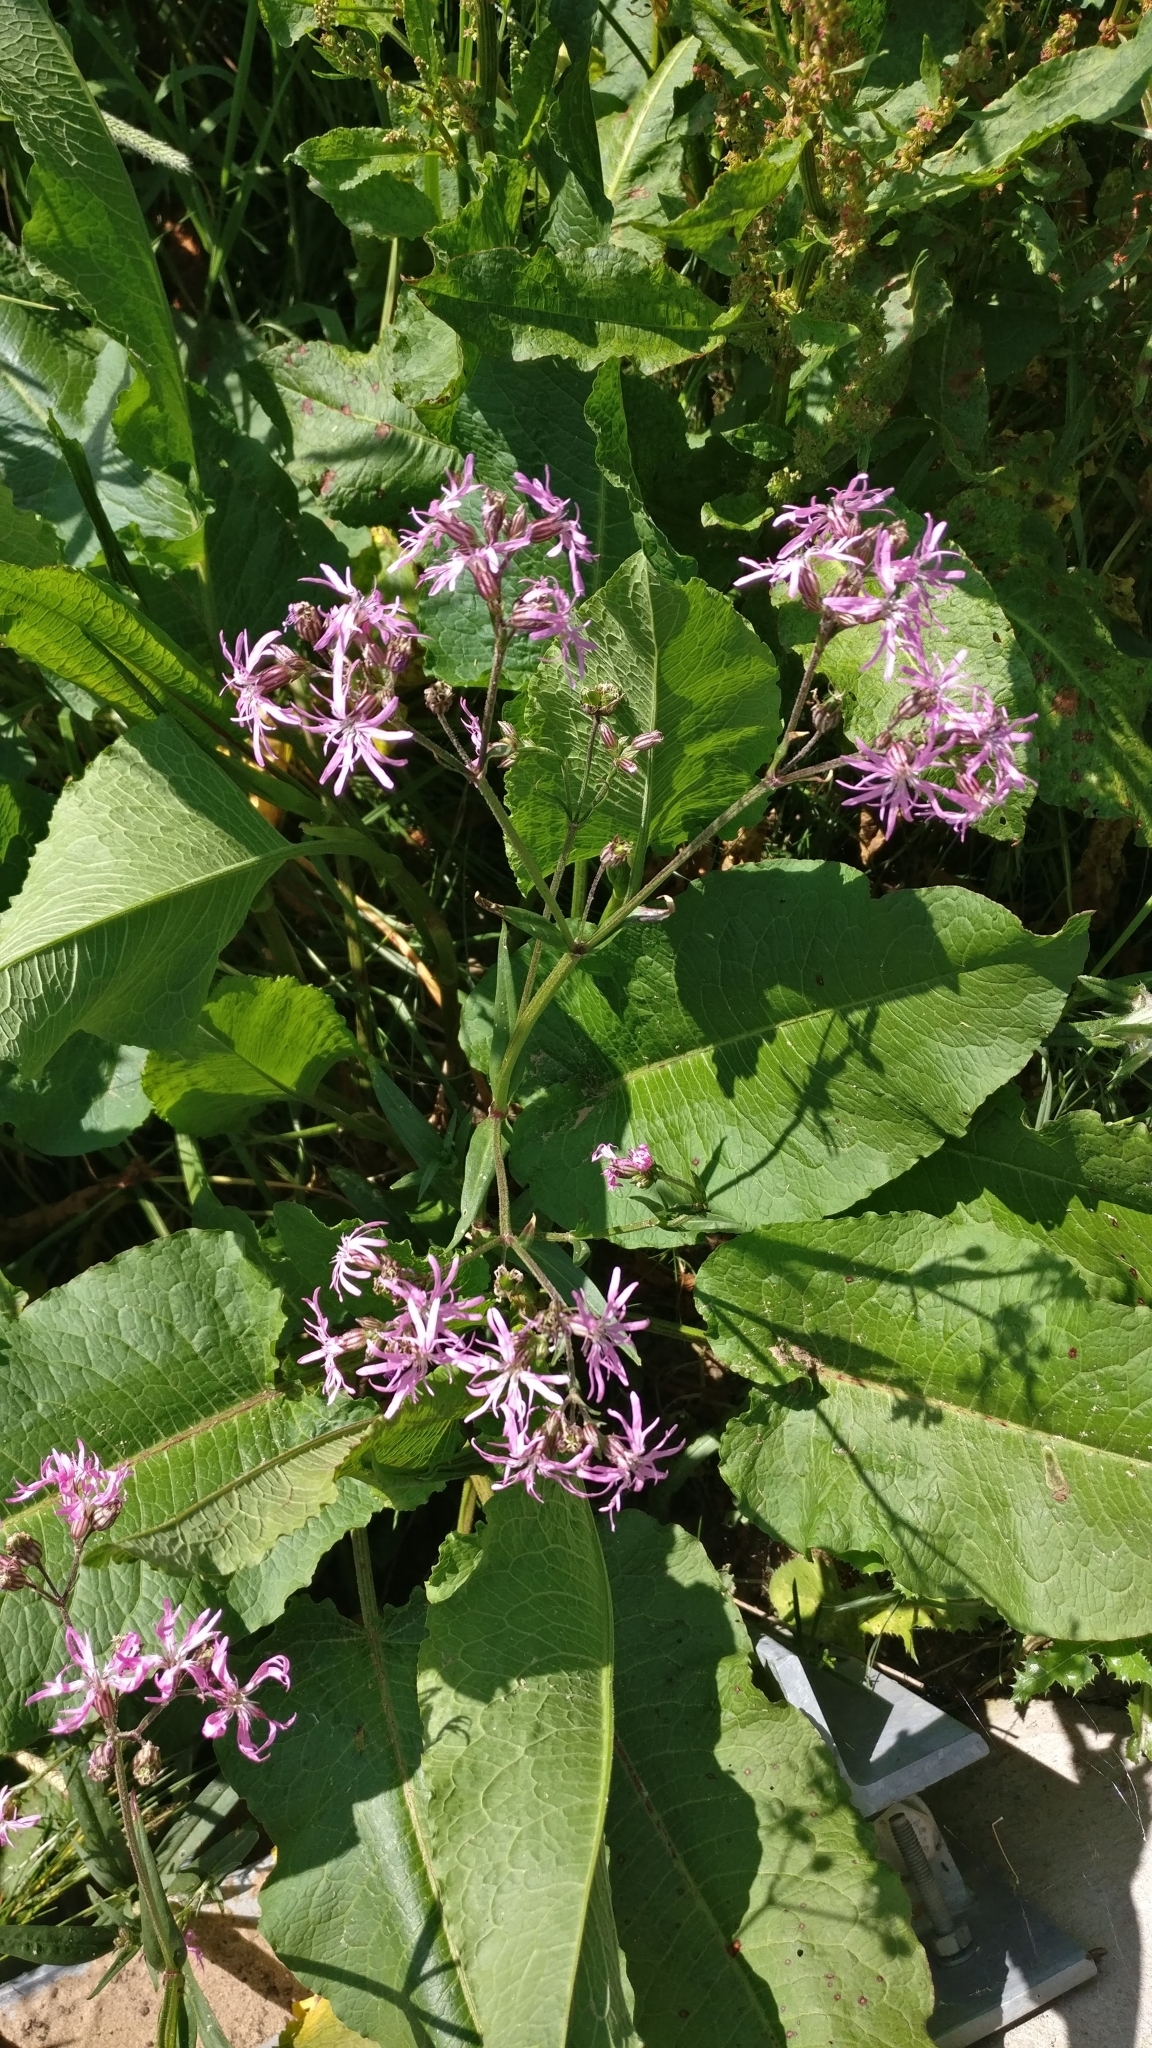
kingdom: Plantae
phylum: Tracheophyta
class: Magnoliopsida
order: Caryophyllales
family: Caryophyllaceae
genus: Silene
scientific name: Silene flos-cuculi
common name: Ragged-robin
